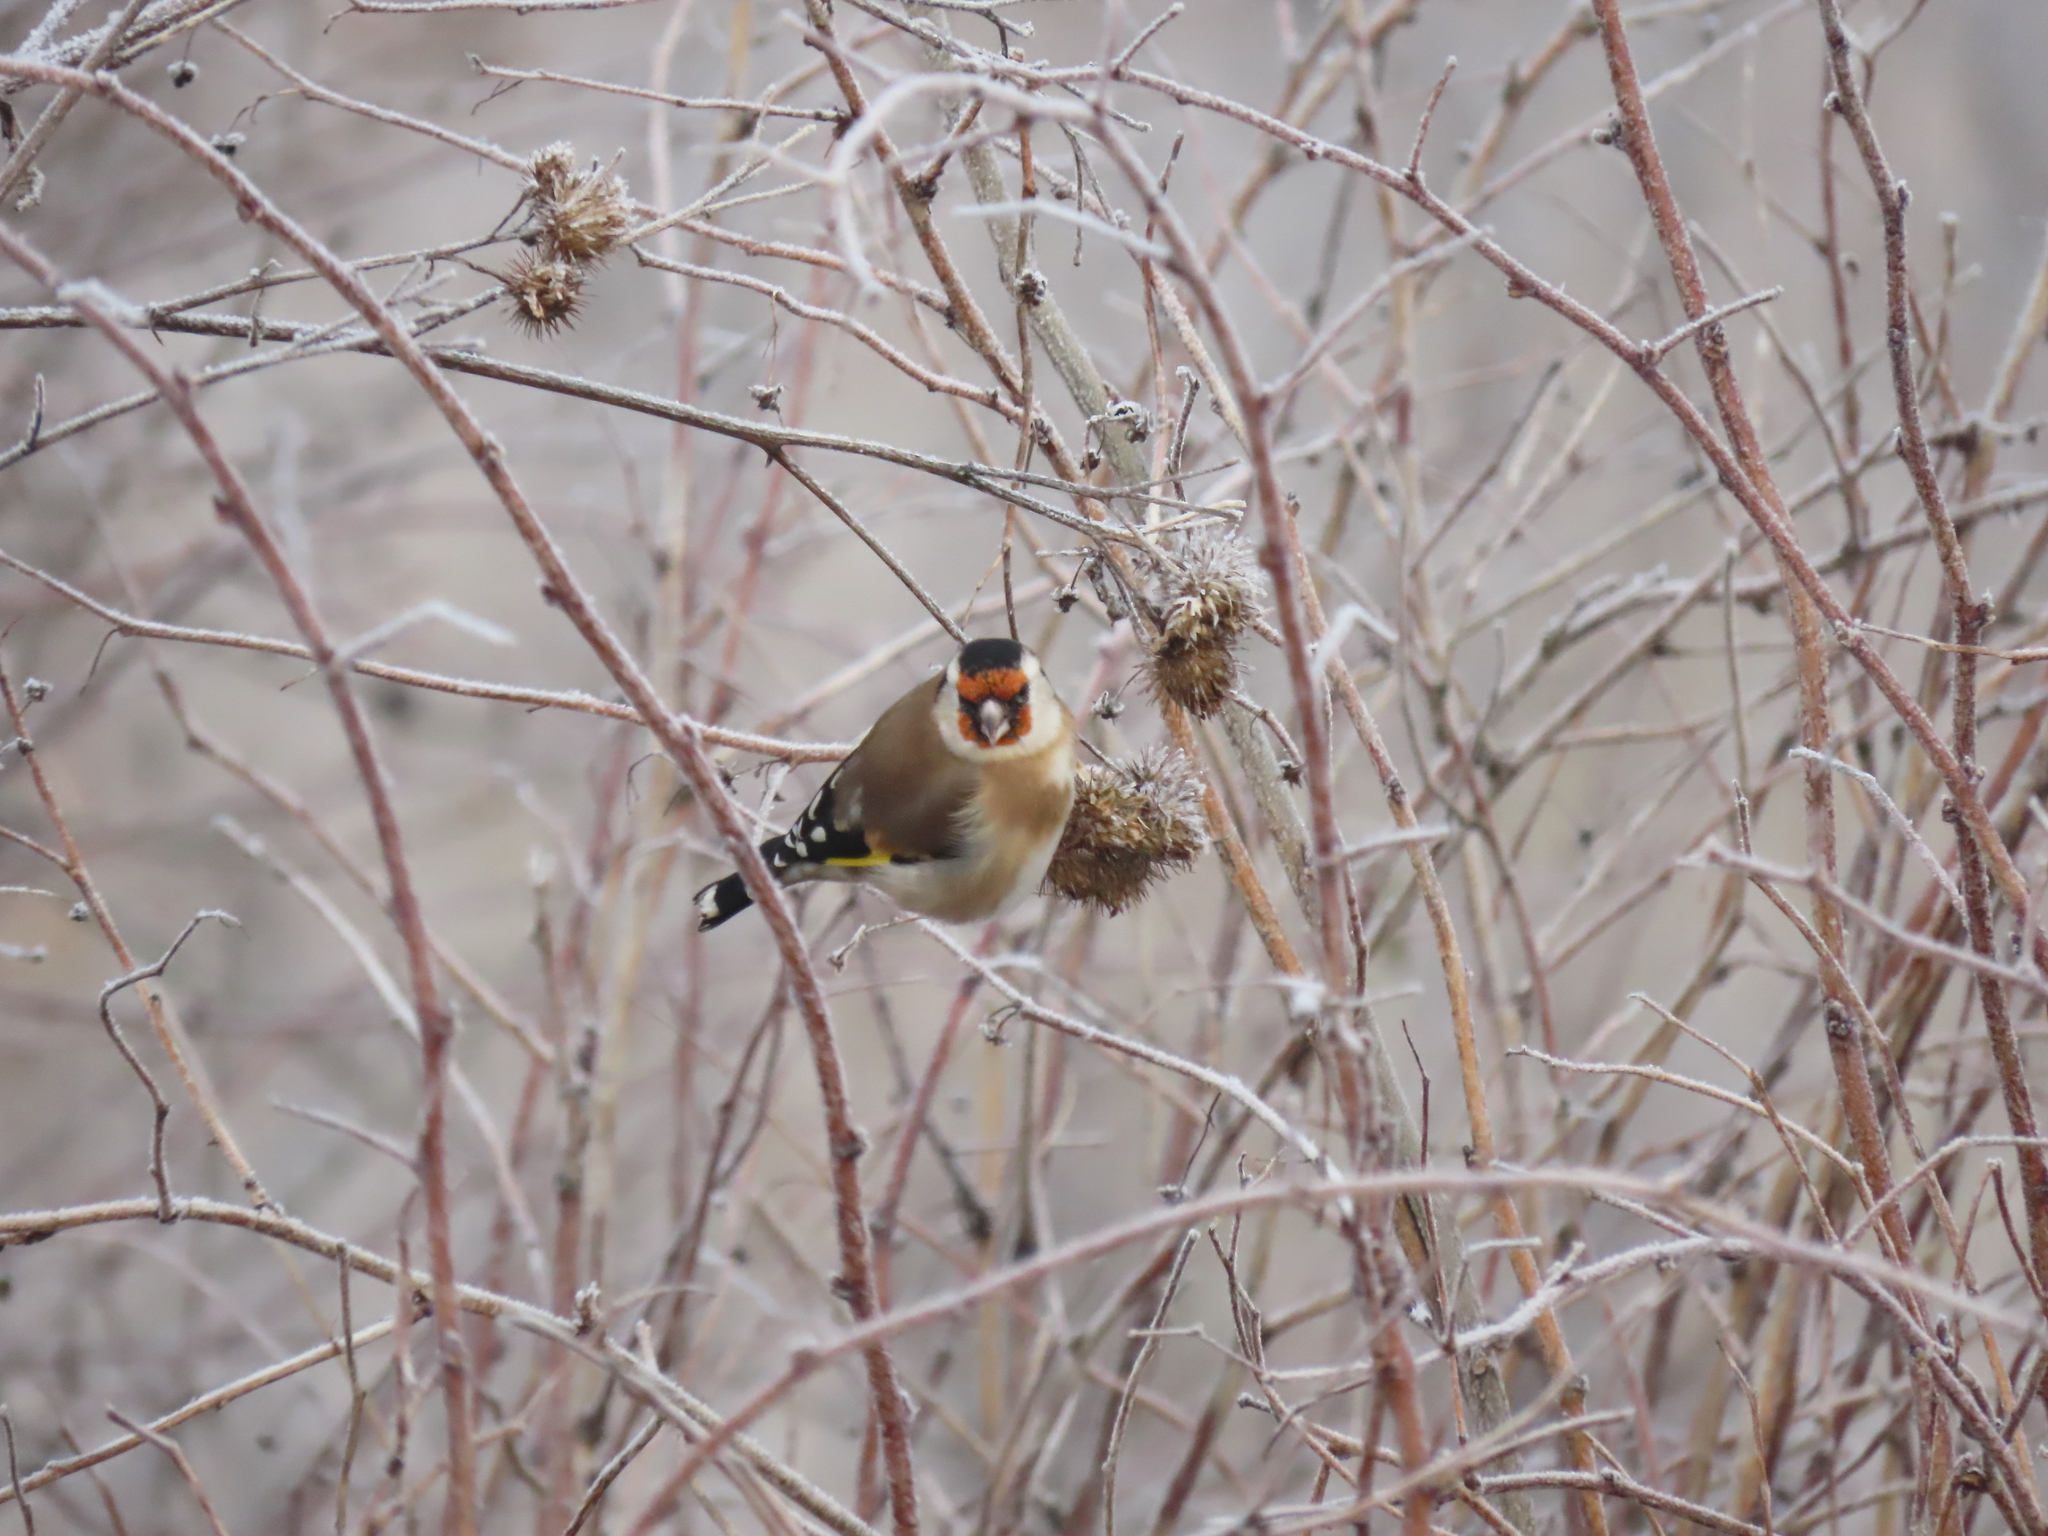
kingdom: Animalia
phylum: Chordata
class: Aves
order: Passeriformes
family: Fringillidae
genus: Carduelis
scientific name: Carduelis carduelis
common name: European goldfinch
